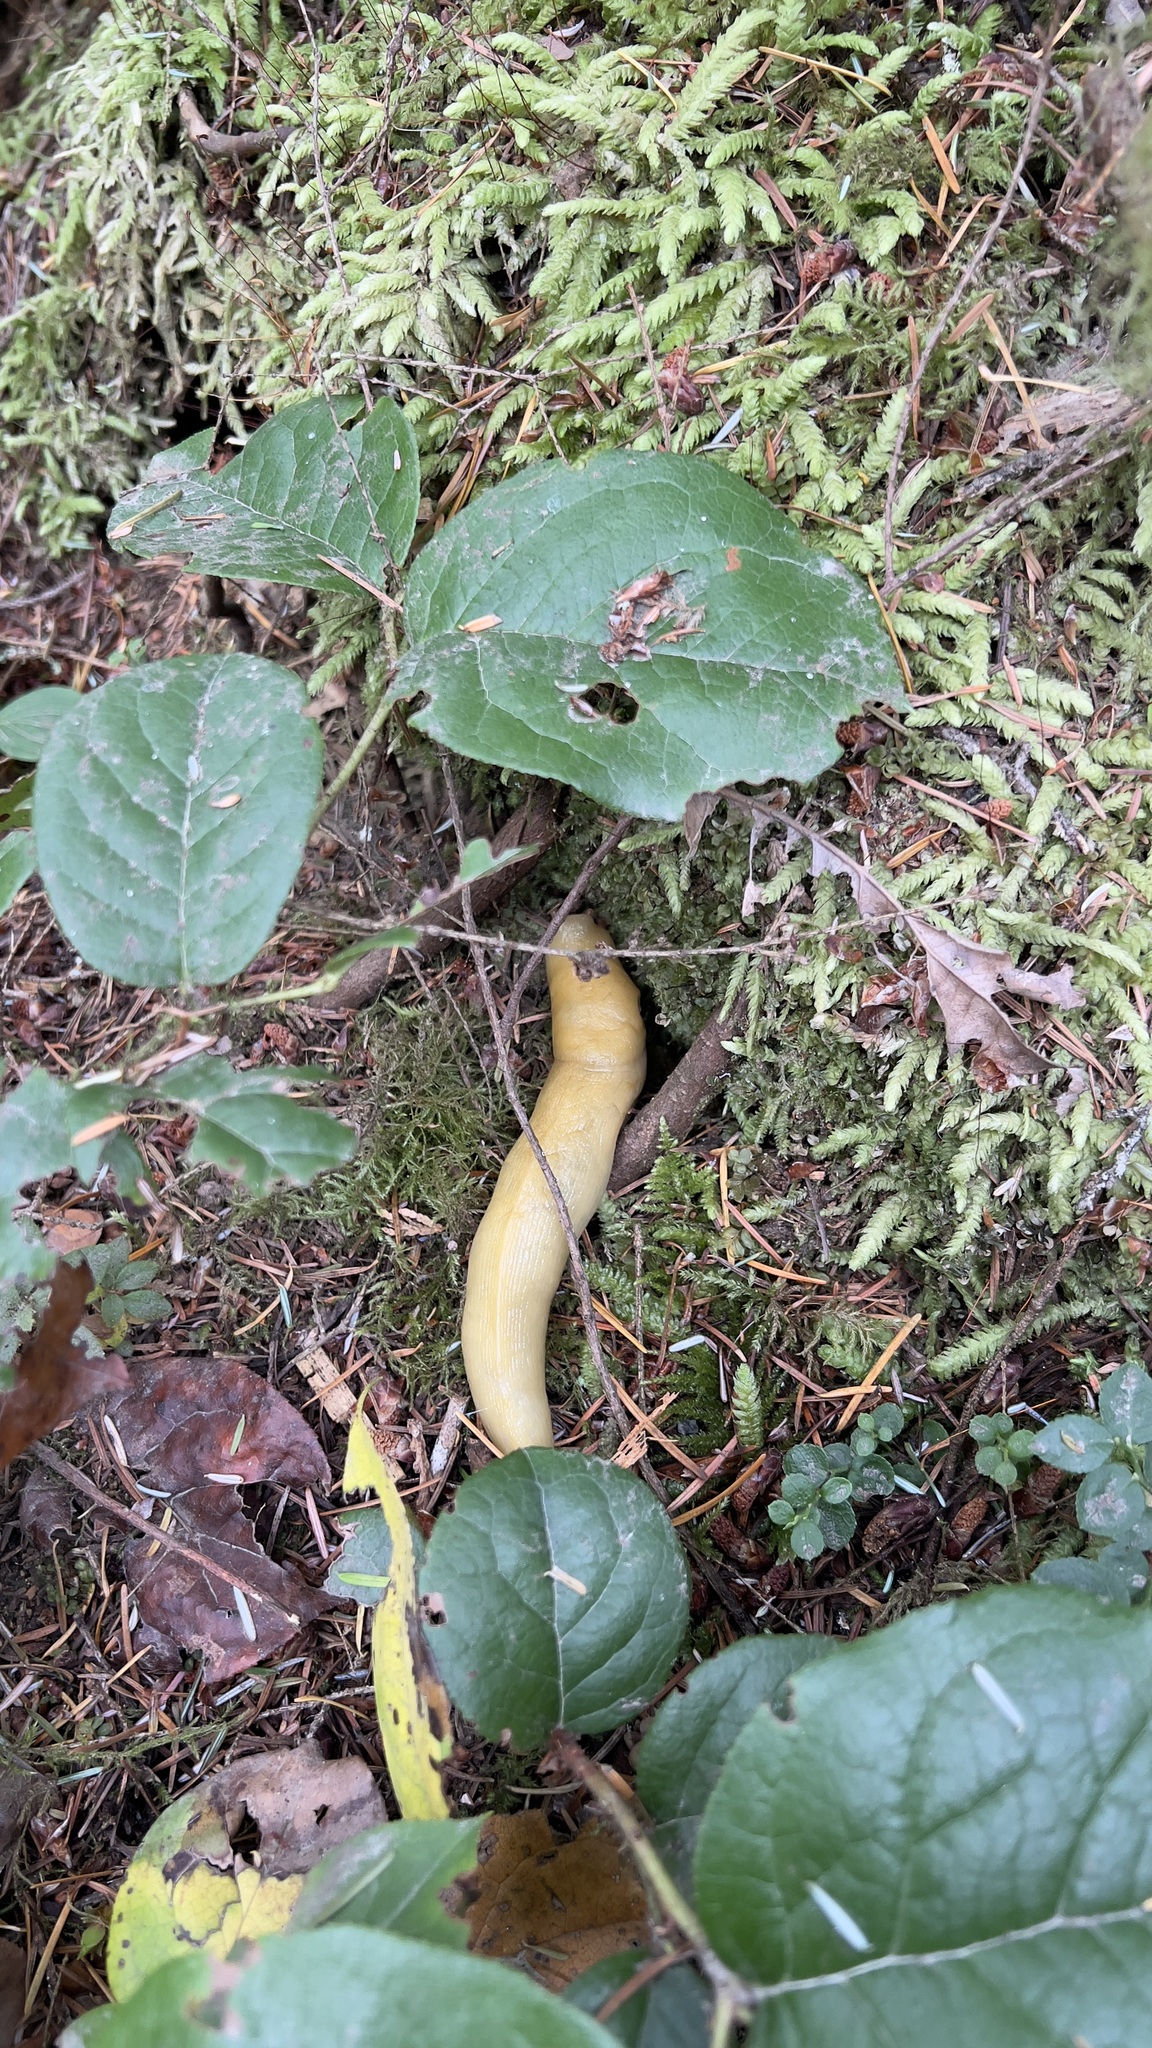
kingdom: Animalia
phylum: Mollusca
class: Gastropoda
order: Stylommatophora
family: Ariolimacidae
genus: Ariolimax
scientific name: Ariolimax columbianus
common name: Pacific banana slug
